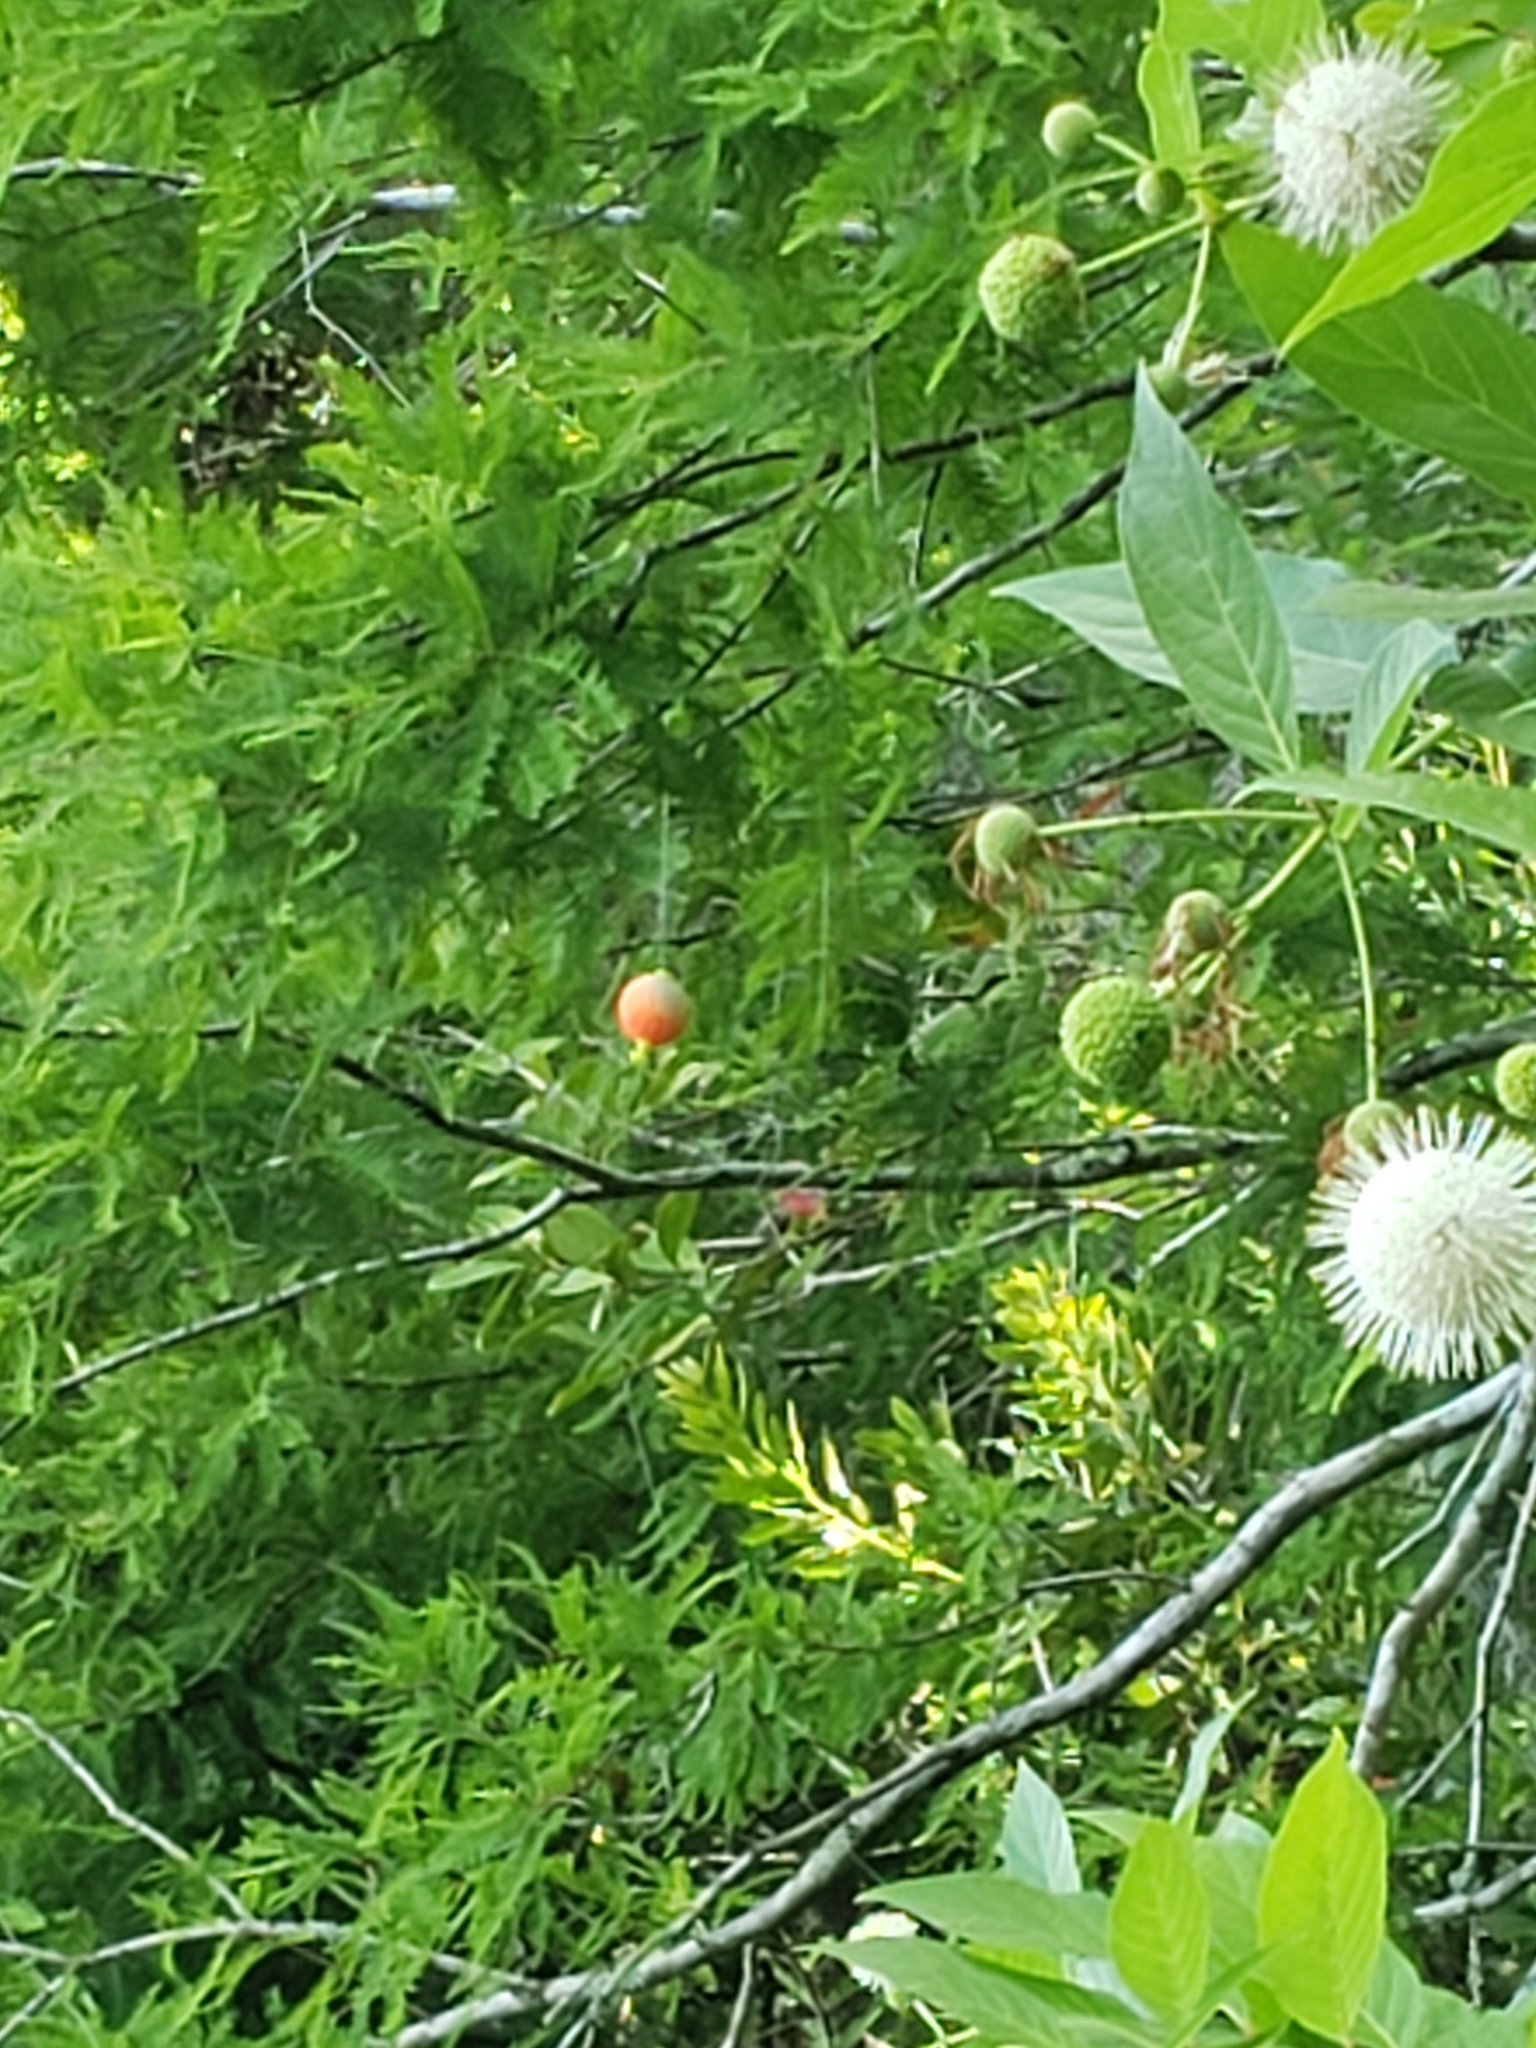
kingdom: Plantae
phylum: Tracheophyta
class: Magnoliopsida
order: Gentianales
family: Rubiaceae
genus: Cephalanthus
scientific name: Cephalanthus occidentalis
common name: Button-willow
